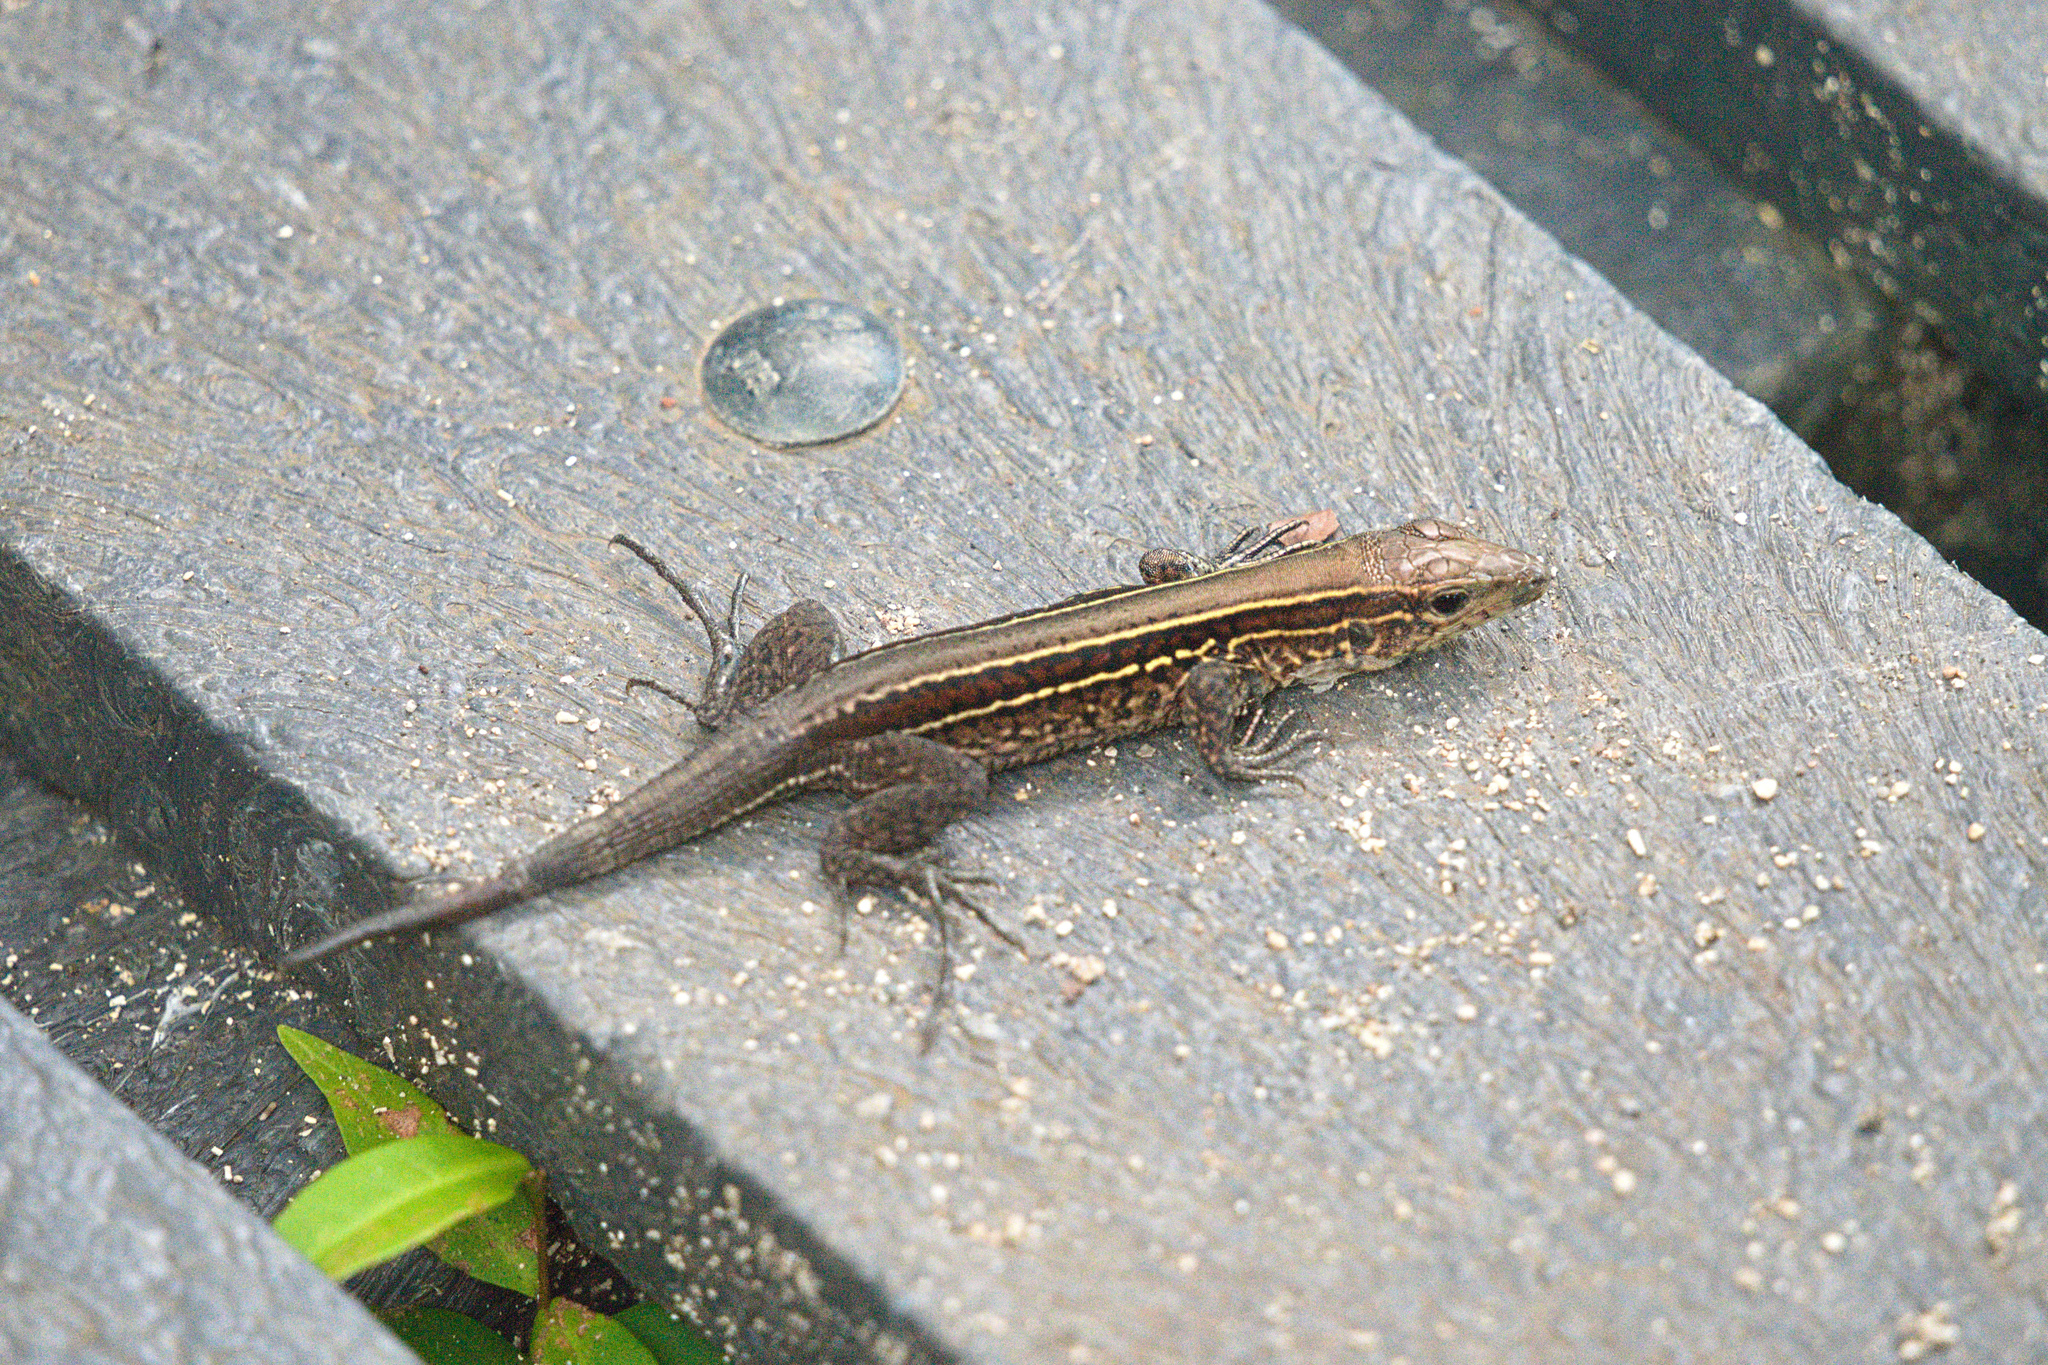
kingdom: Animalia
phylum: Chordata
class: Squamata
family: Teiidae
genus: Holcosus
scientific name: Holcosus quadrilineatus
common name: Four-lined ameiva
